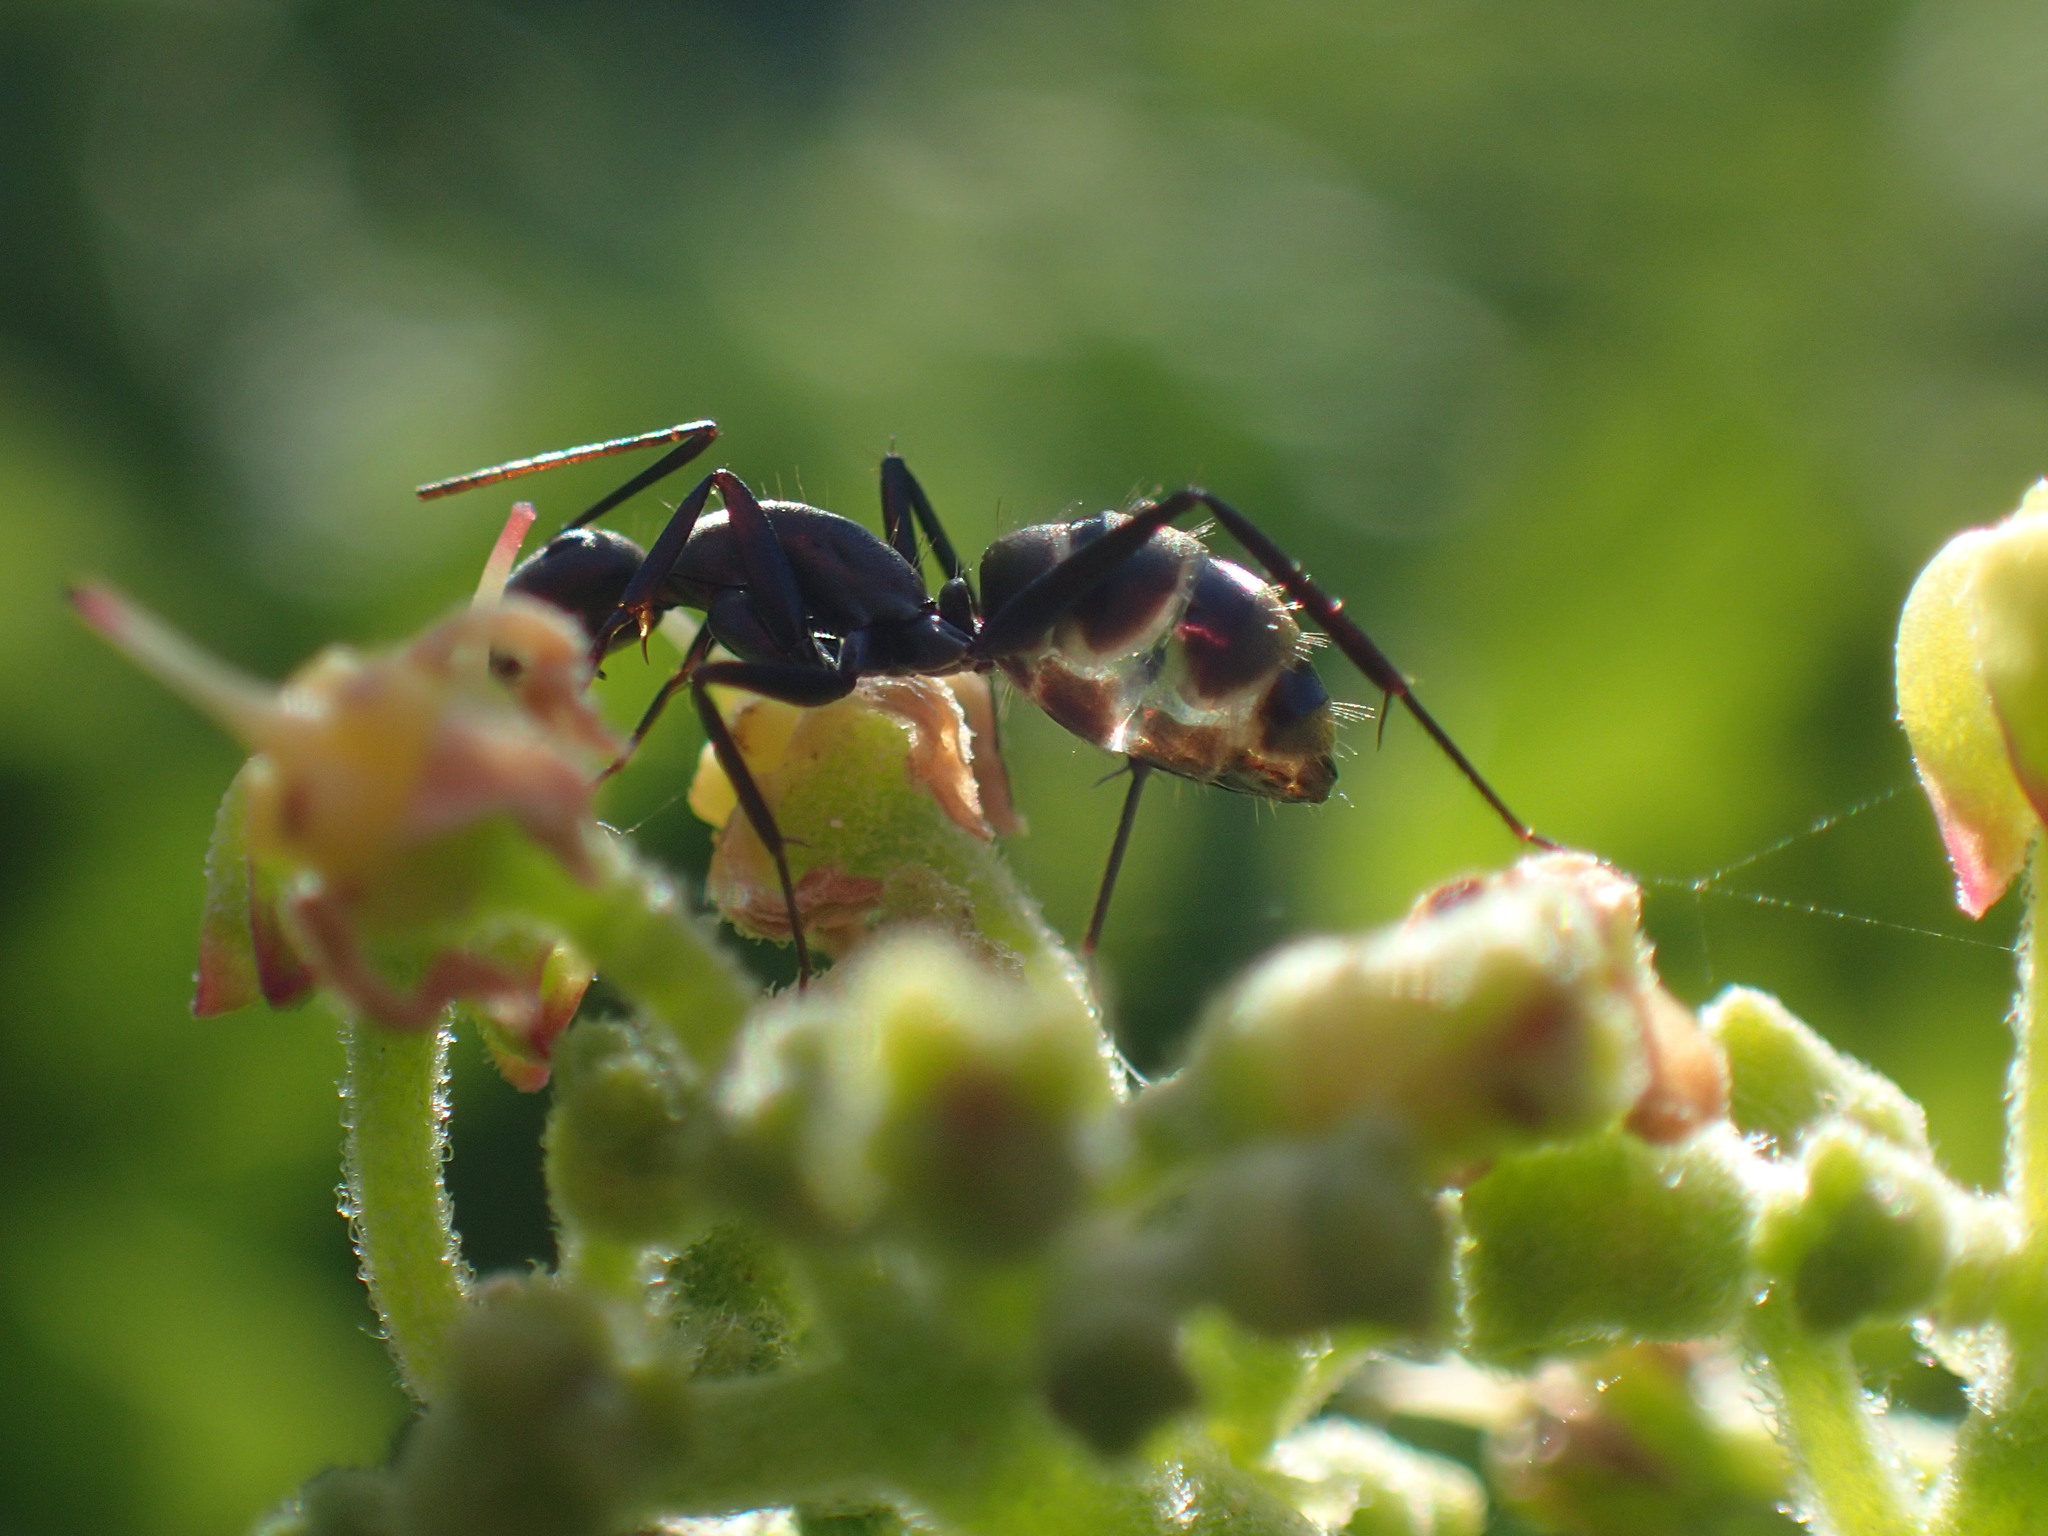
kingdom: Animalia
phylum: Arthropoda
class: Insecta
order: Hymenoptera
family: Formicidae
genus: Camponotus
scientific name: Camponotus cinctellus
